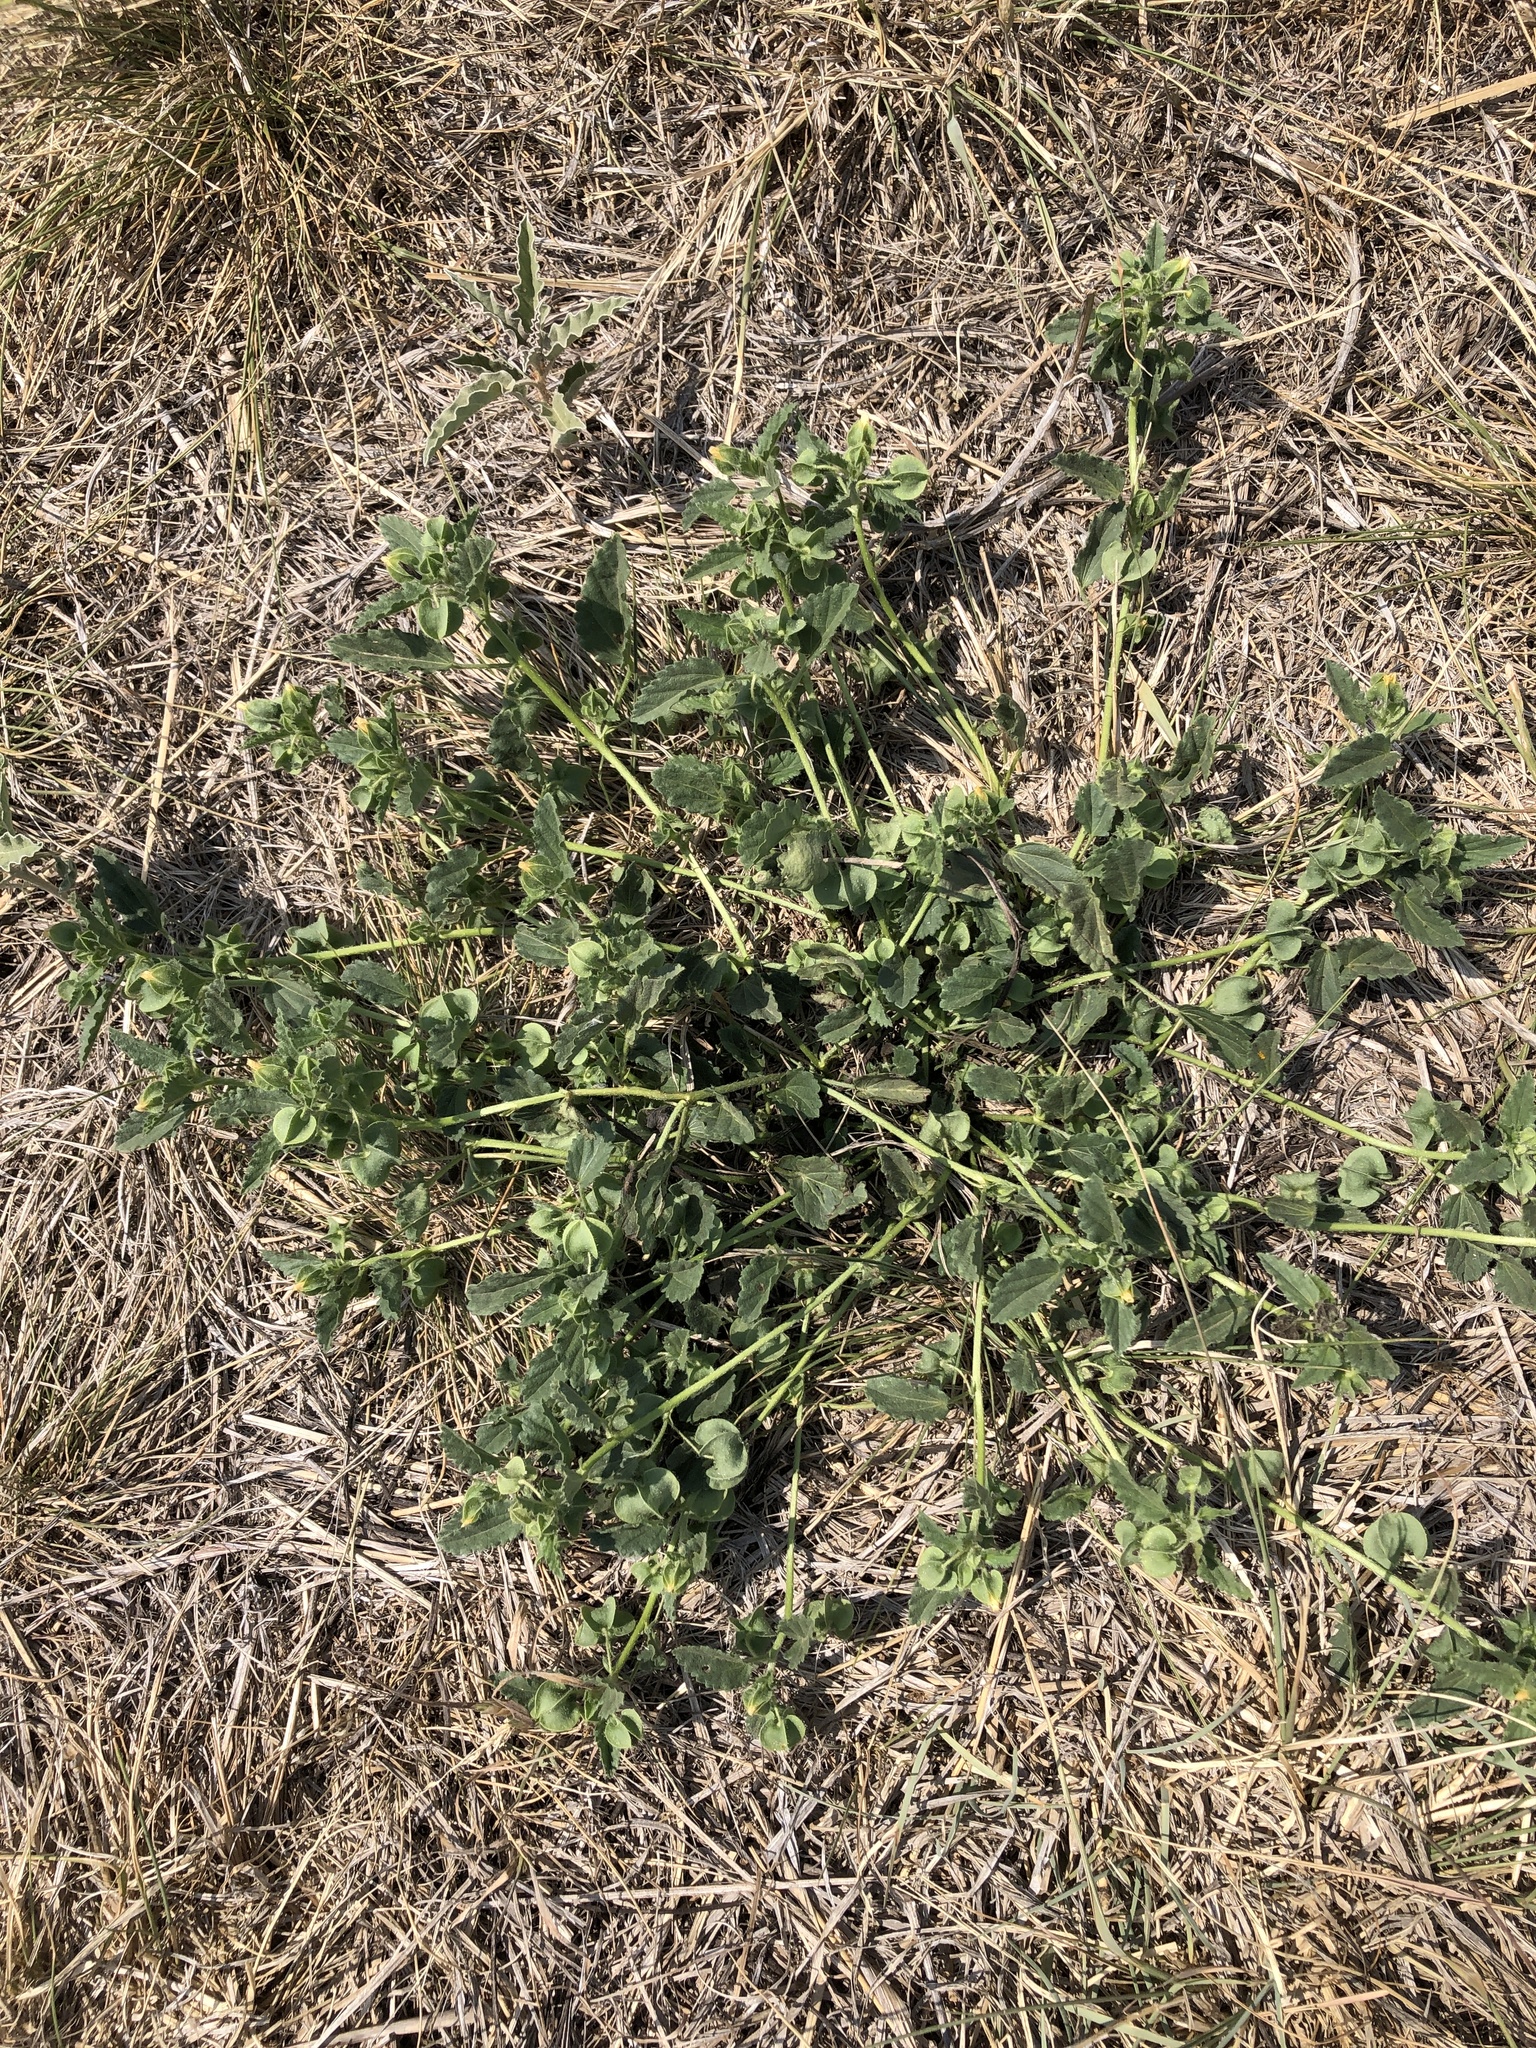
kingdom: Plantae
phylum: Tracheophyta
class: Magnoliopsida
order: Malvales
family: Malvaceae
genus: Rhynchosida
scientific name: Rhynchosida physocalyx
